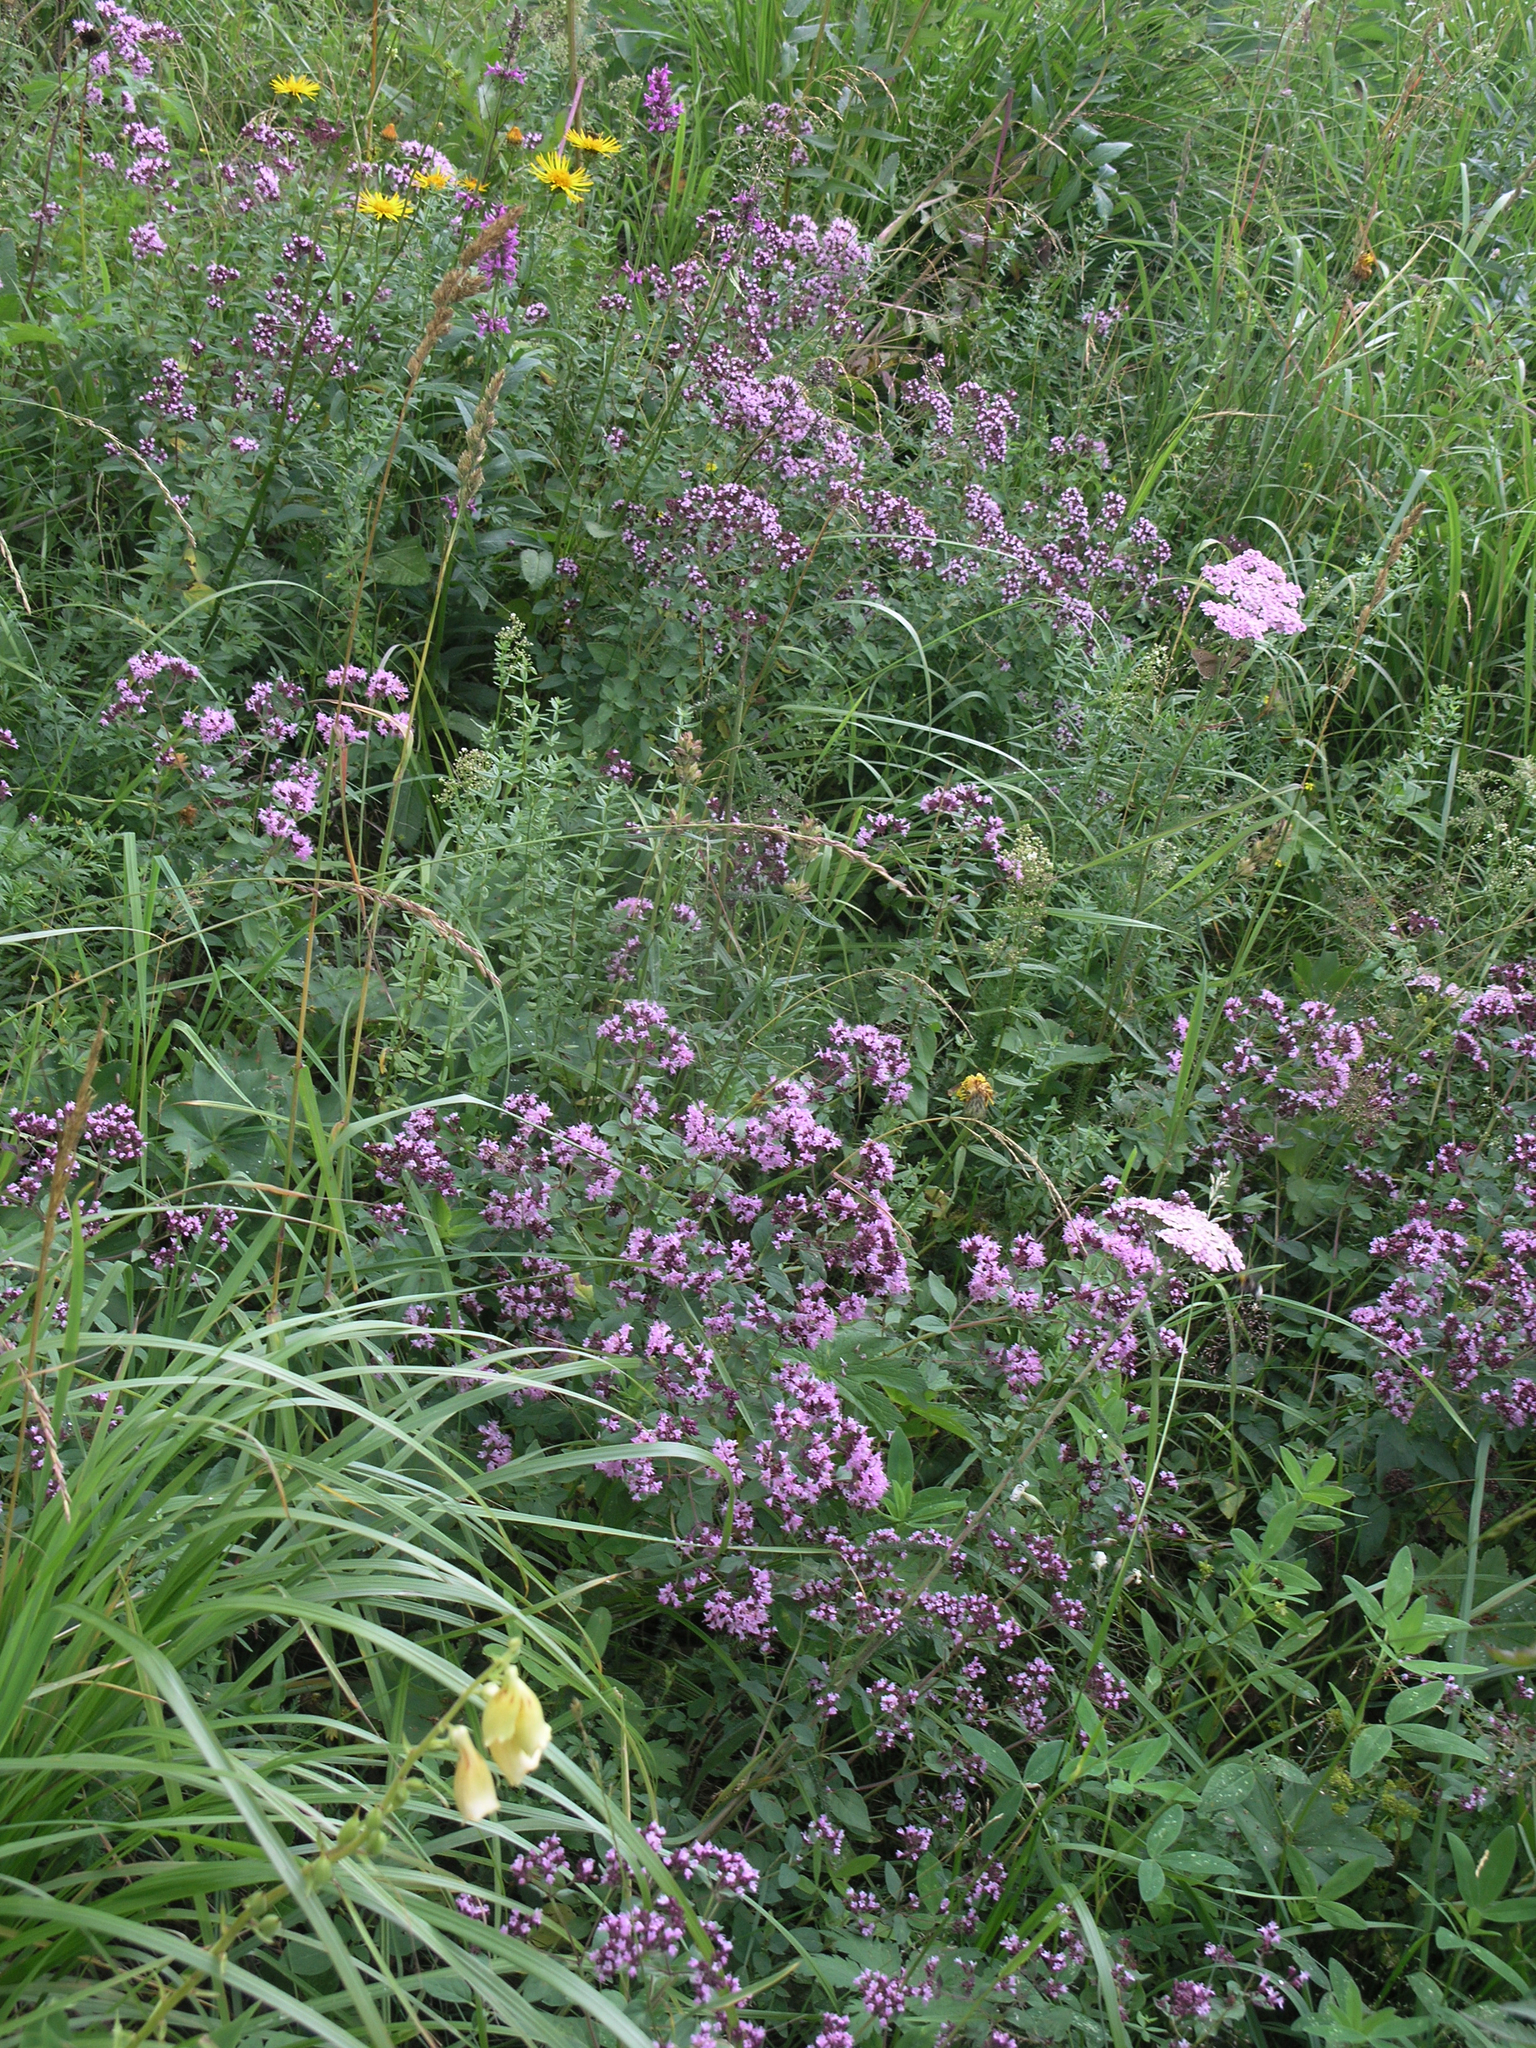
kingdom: Plantae
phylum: Tracheophyta
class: Magnoliopsida
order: Lamiales
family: Lamiaceae
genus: Origanum
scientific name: Origanum vulgare
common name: Wild marjoram
